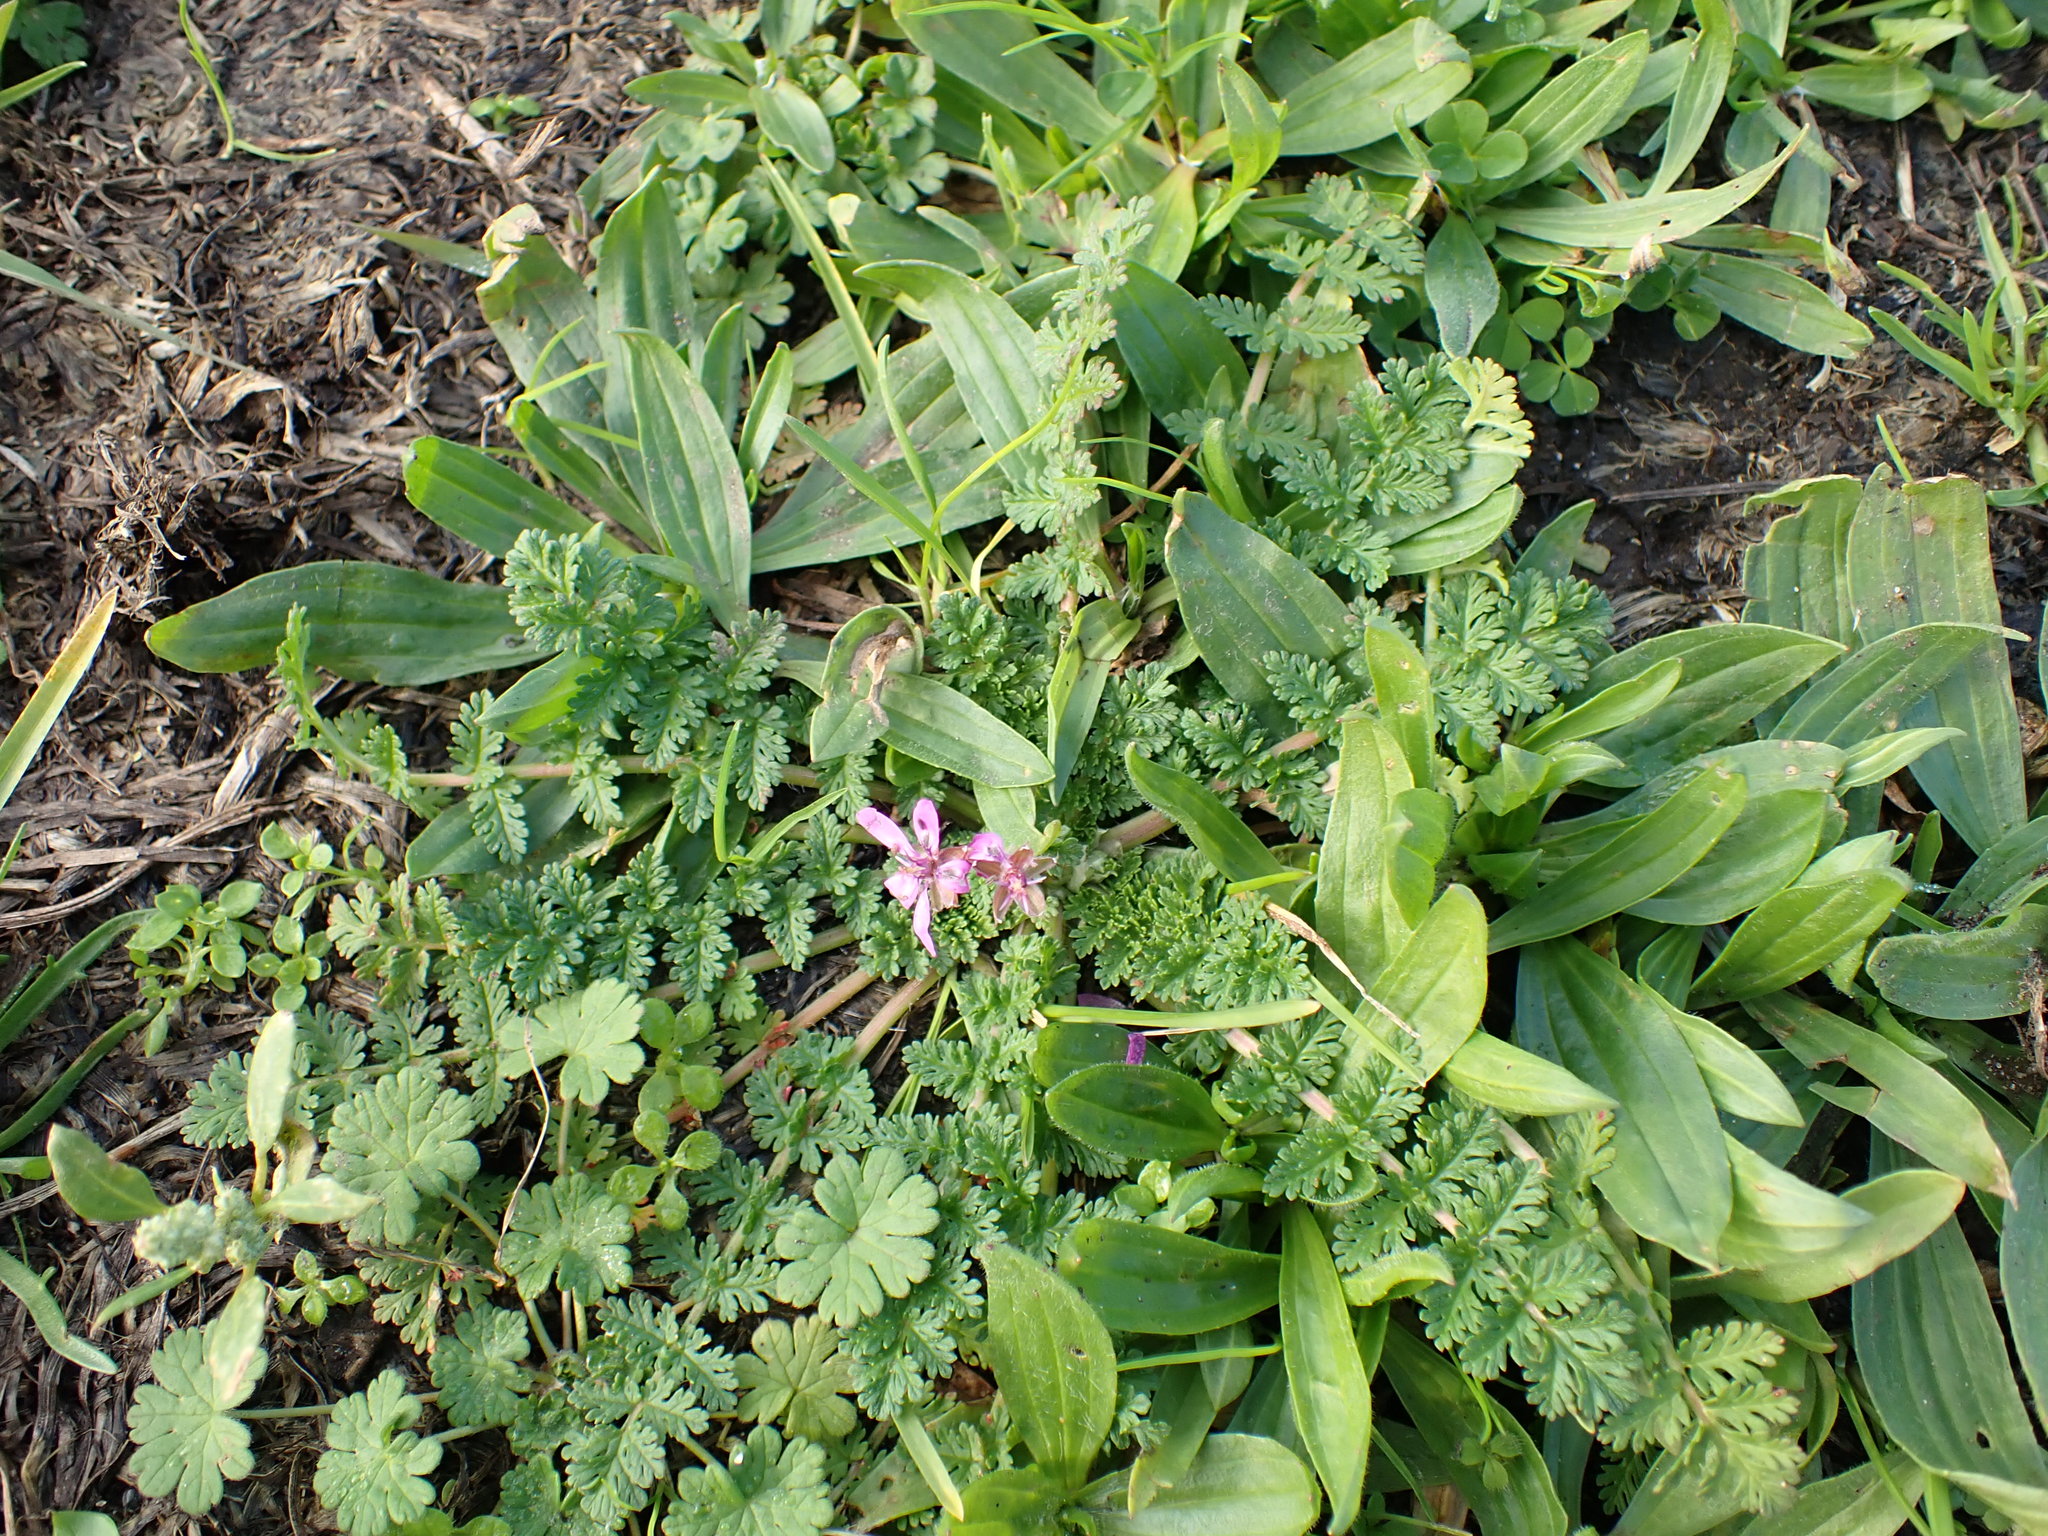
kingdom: Plantae
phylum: Tracheophyta
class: Magnoliopsida
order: Geraniales
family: Geraniaceae
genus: Erodium
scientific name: Erodium cicutarium
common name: Common stork's-bill
